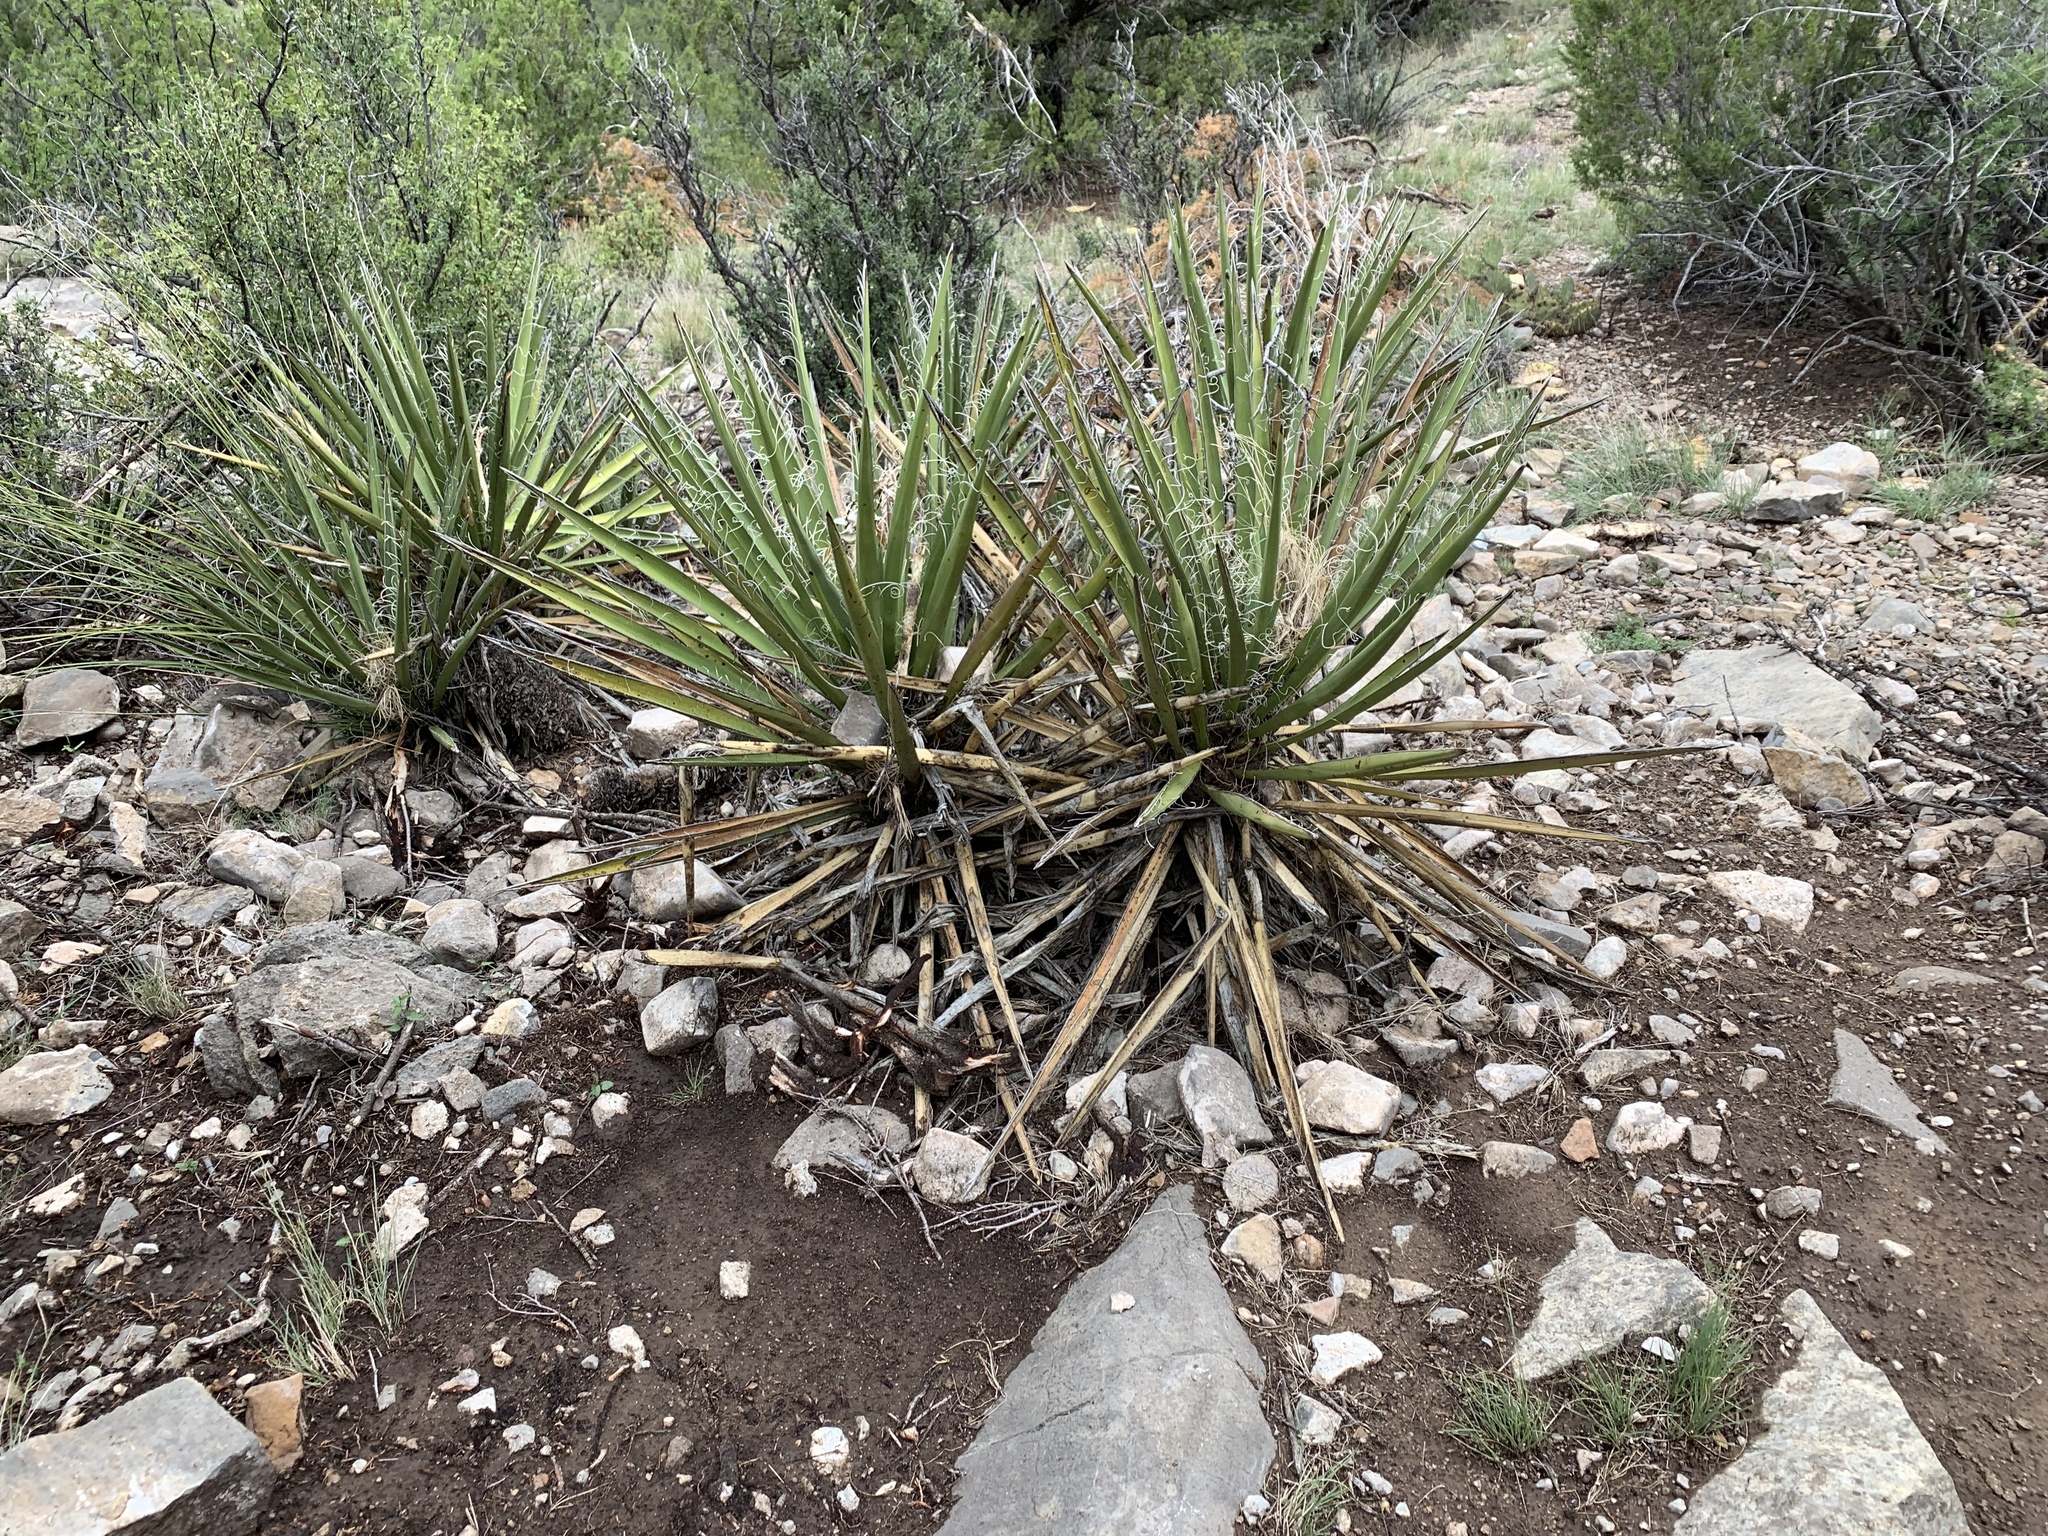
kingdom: Plantae
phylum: Tracheophyta
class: Liliopsida
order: Asparagales
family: Asparagaceae
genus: Yucca
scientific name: Yucca baccata
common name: Banana yucca
